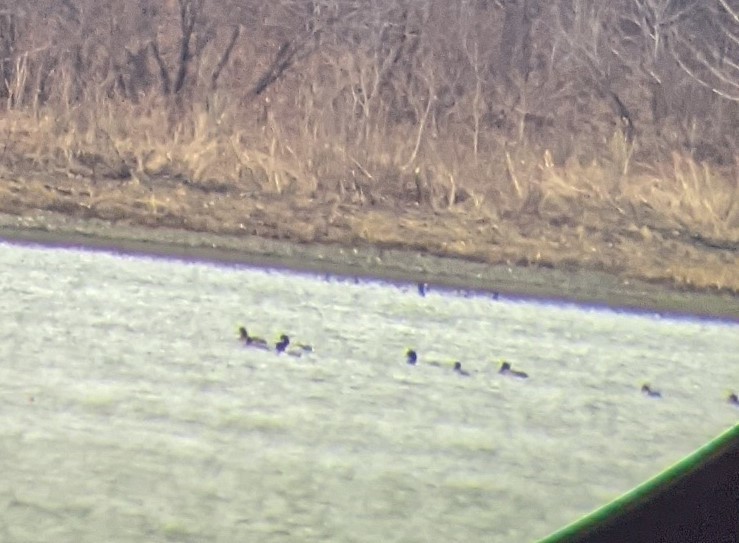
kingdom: Animalia
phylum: Chordata
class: Aves
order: Anseriformes
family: Anatidae
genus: Aythya
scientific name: Aythya marila
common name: Greater scaup
